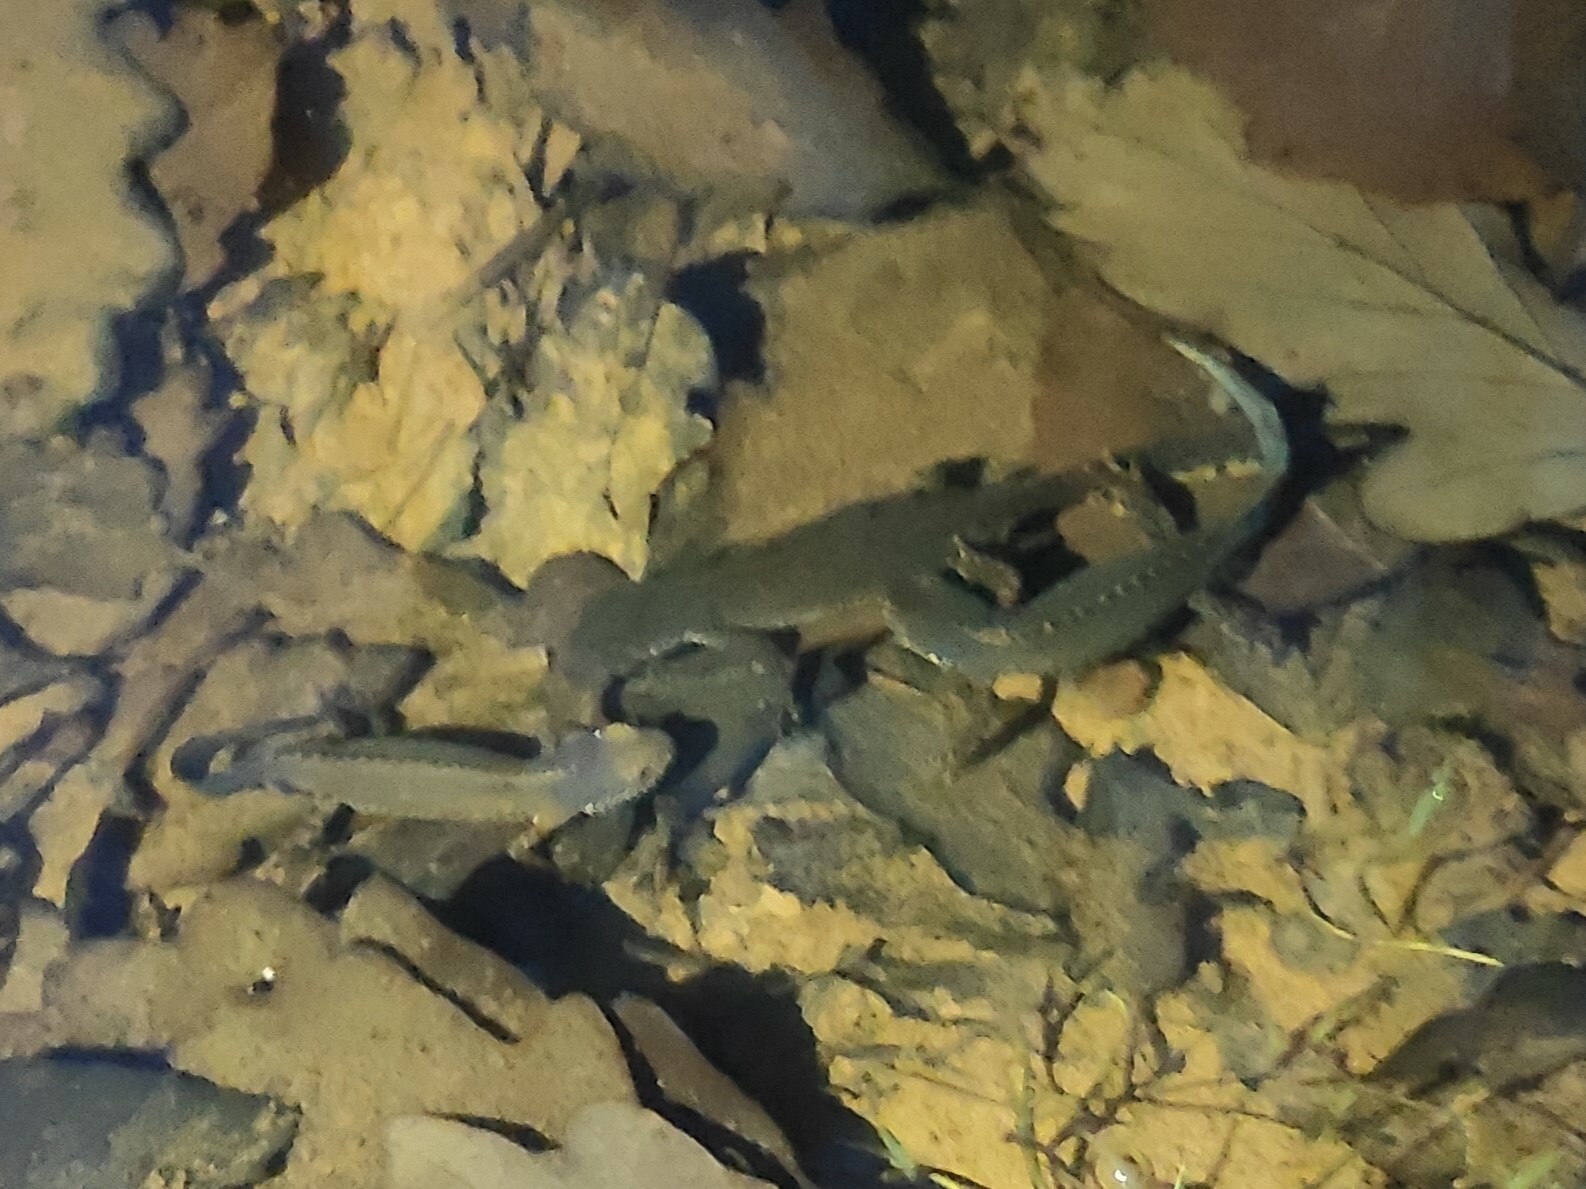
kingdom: Animalia
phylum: Chordata
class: Amphibia
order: Caudata
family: Salamandridae
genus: Ichthyosaura
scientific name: Ichthyosaura alpestris
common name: Alpine newt
